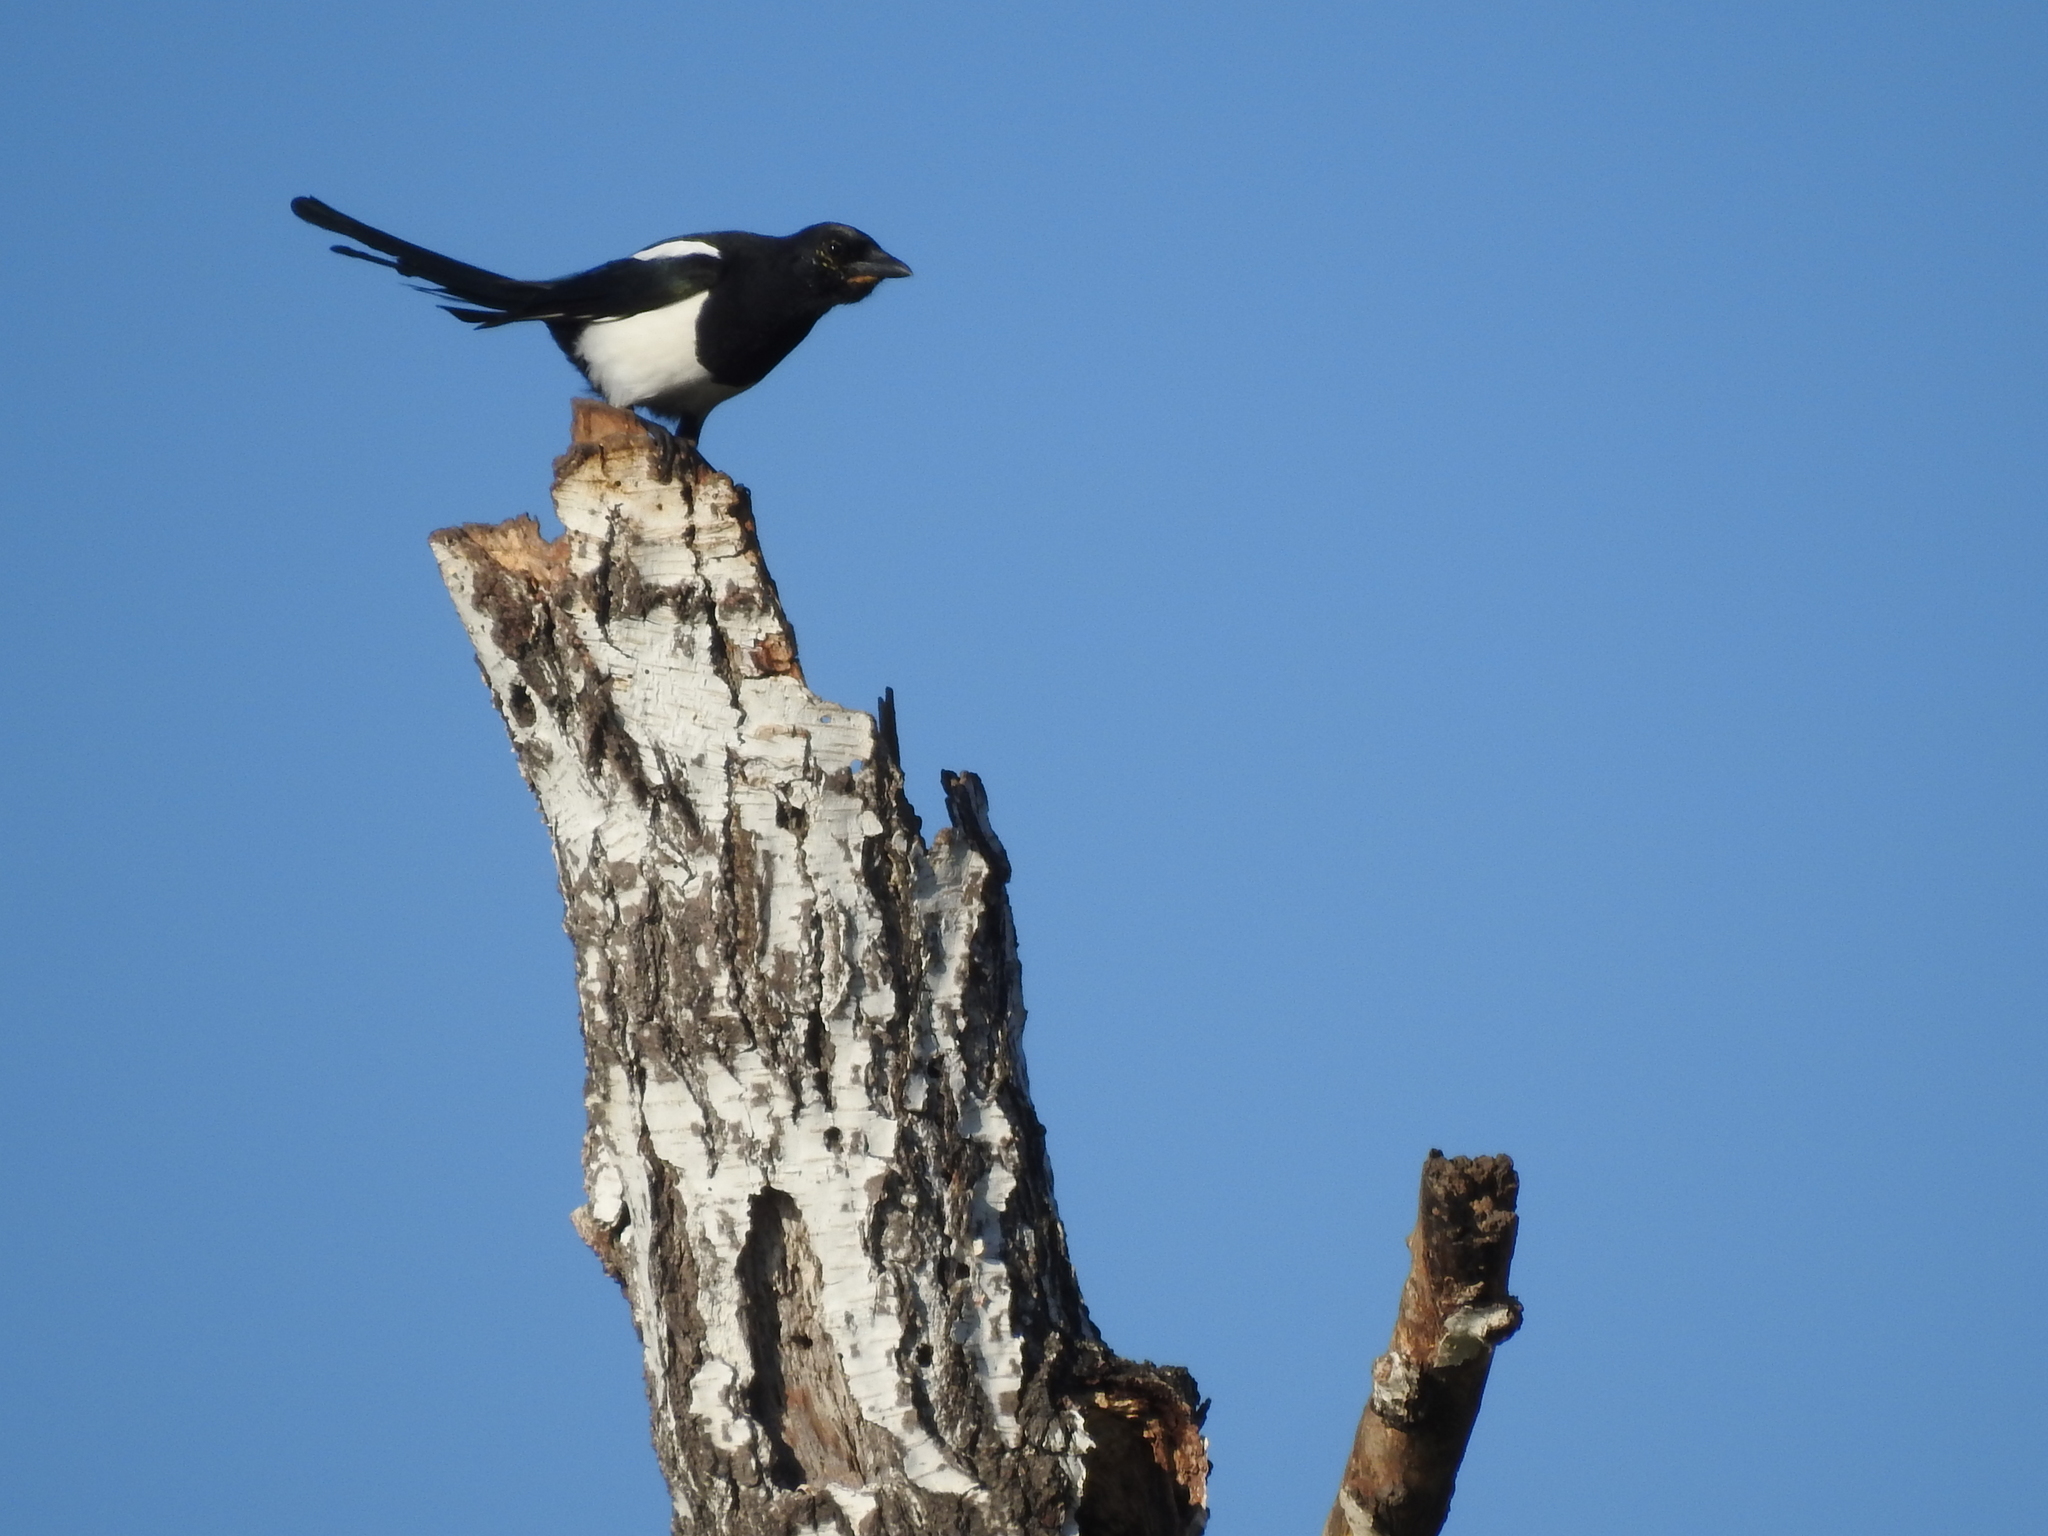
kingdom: Animalia
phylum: Chordata
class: Aves
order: Passeriformes
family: Corvidae
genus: Pica
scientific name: Pica pica
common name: Eurasian magpie
